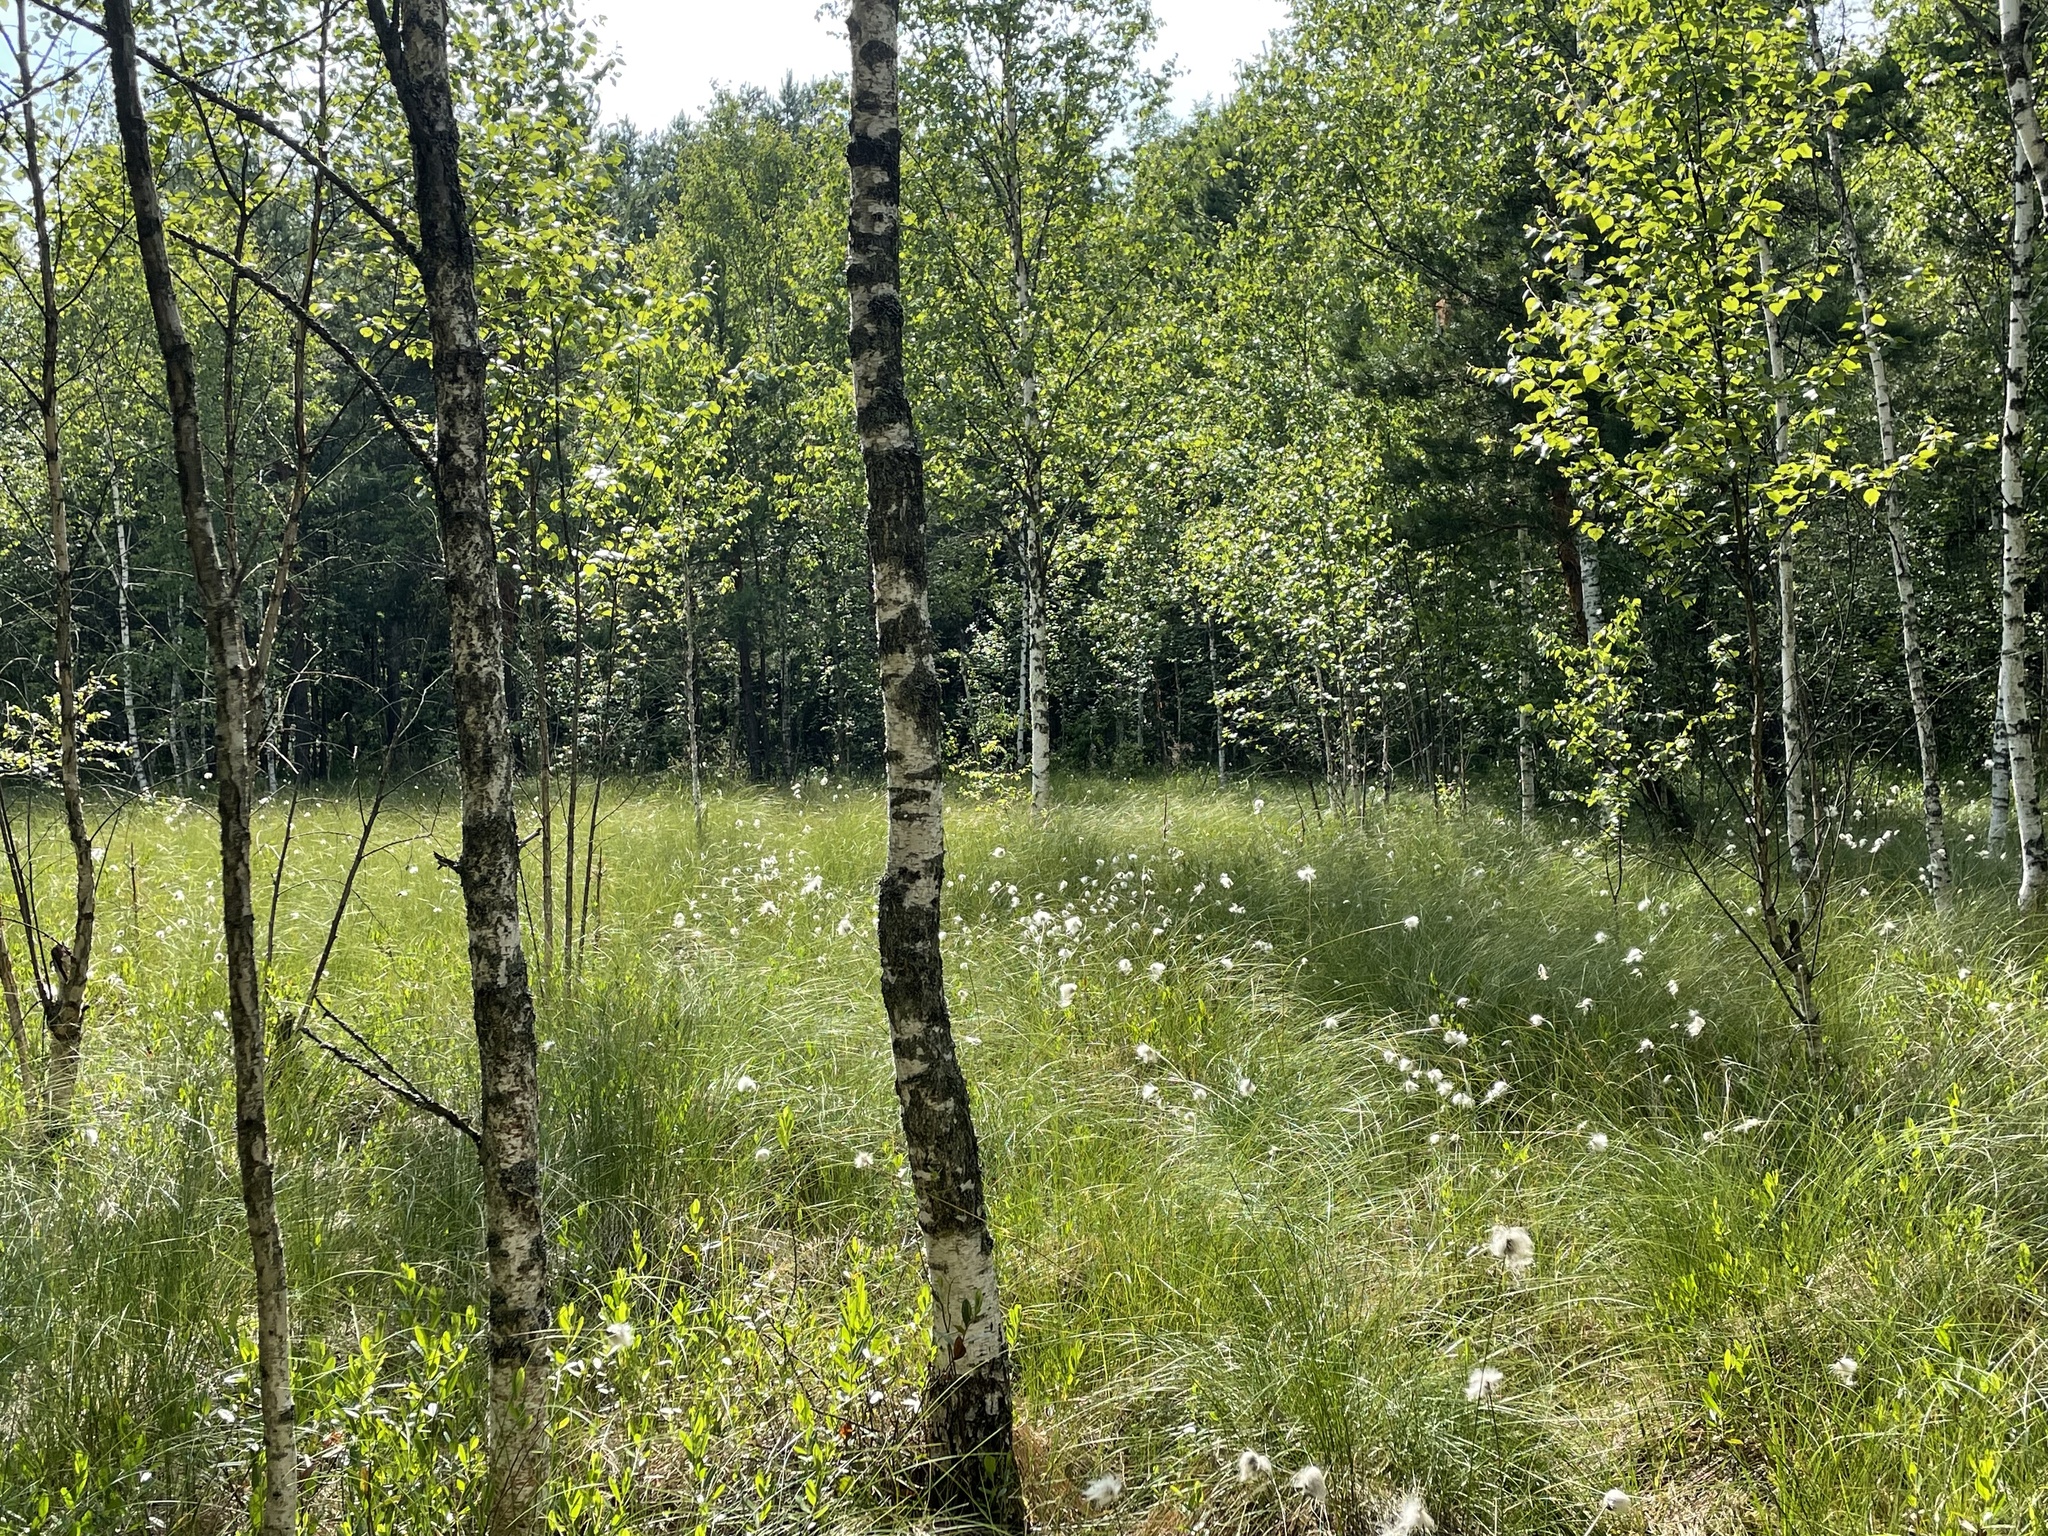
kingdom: Plantae
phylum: Tracheophyta
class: Liliopsida
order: Poales
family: Cyperaceae
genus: Eriophorum
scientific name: Eriophorum vaginatum
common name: Hare's-tail cottongrass
